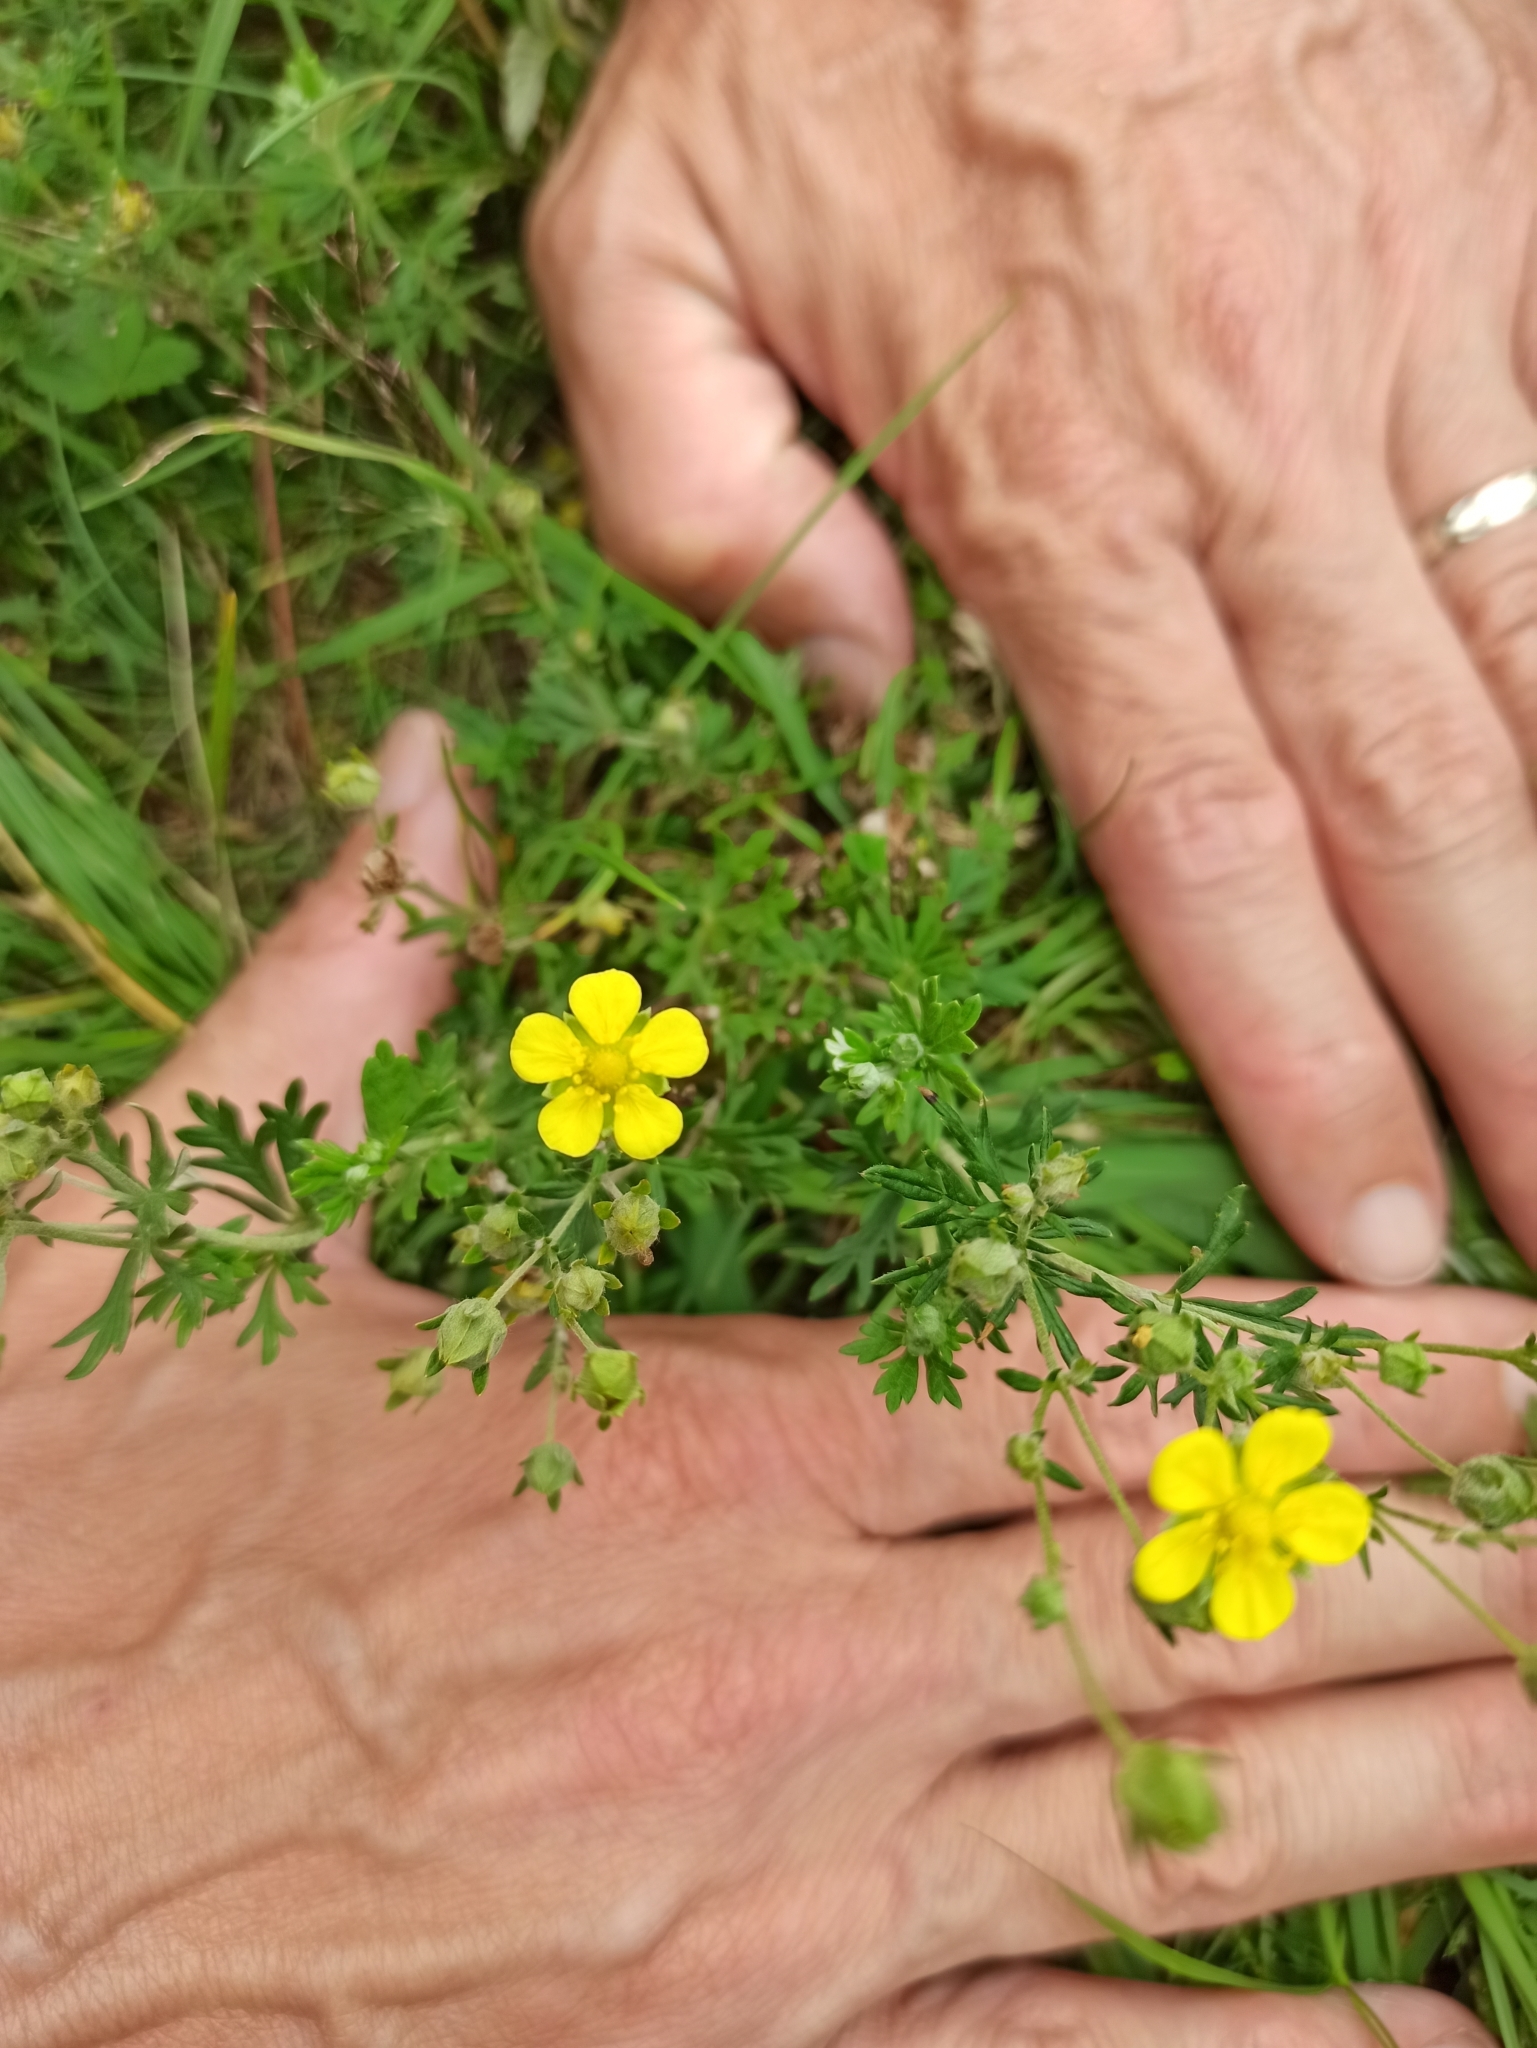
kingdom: Plantae
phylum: Tracheophyta
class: Magnoliopsida
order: Rosales
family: Rosaceae
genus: Potentilla
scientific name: Potentilla argentea
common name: Hoary cinquefoil
